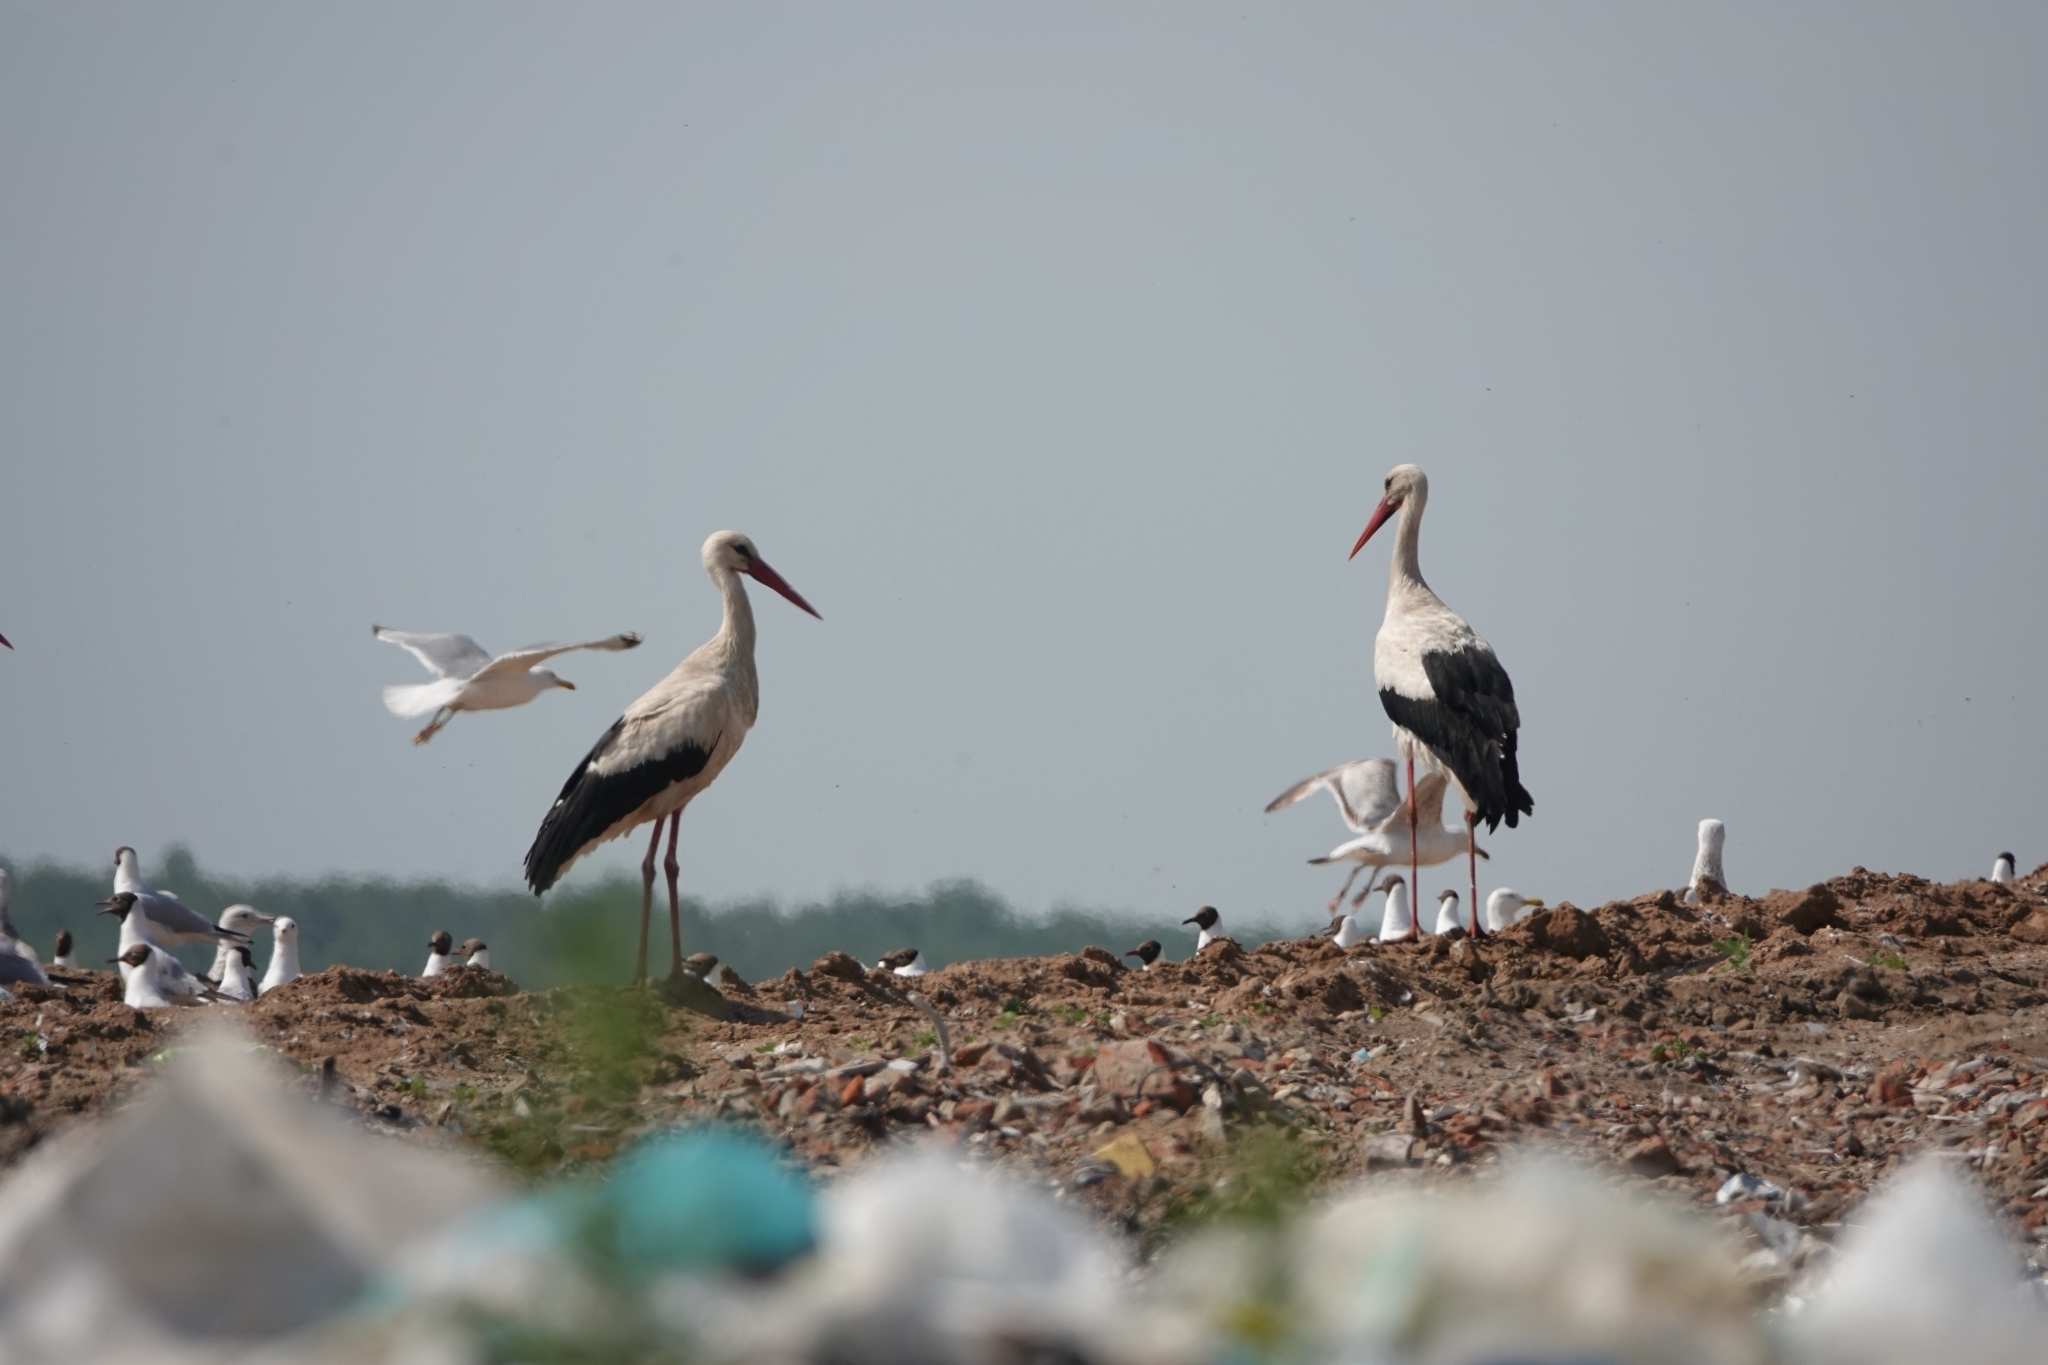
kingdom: Animalia
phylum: Chordata
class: Aves
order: Ciconiiformes
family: Ciconiidae
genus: Ciconia
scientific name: Ciconia ciconia
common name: White stork
